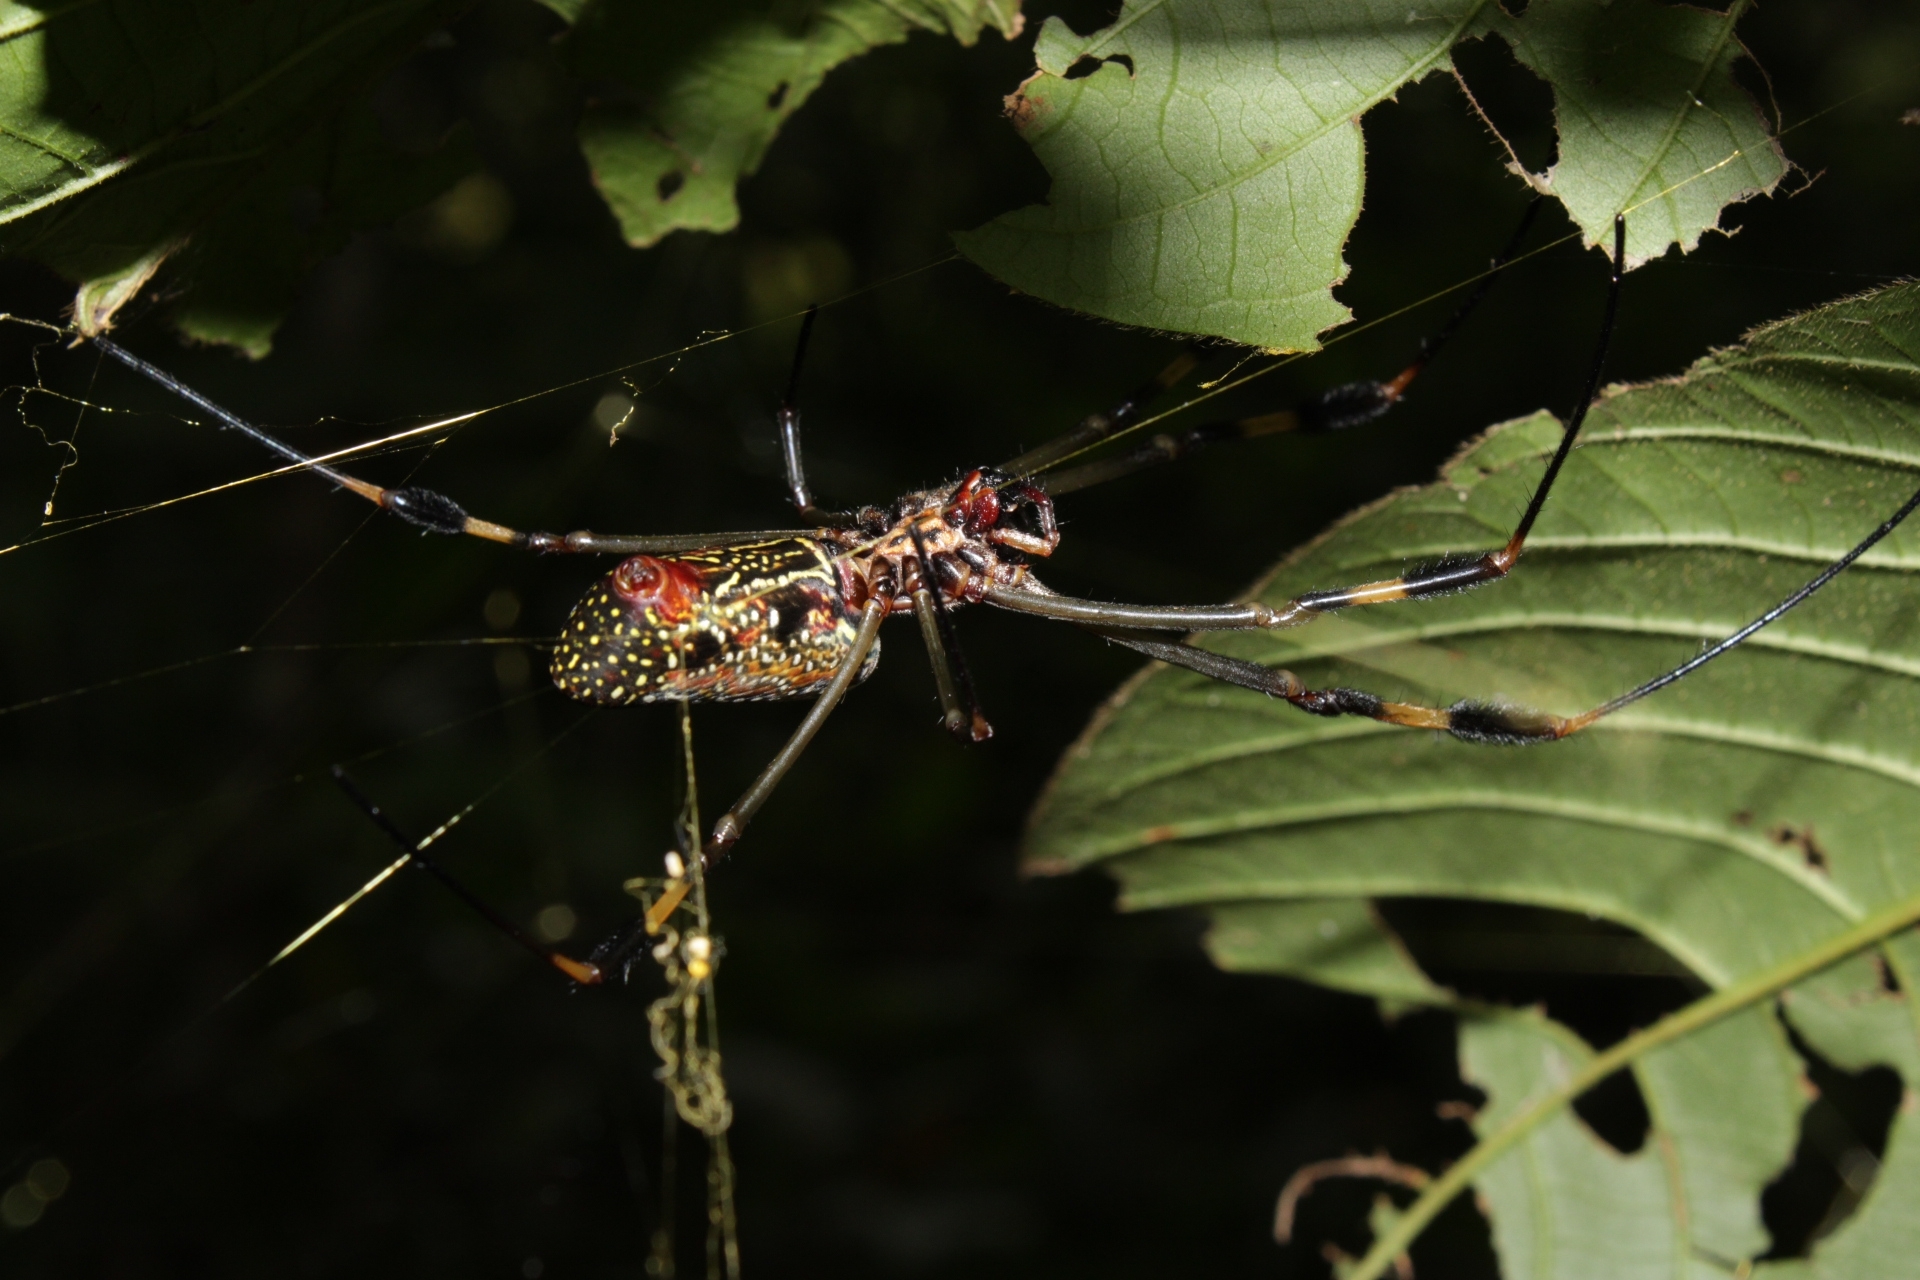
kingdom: Animalia
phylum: Arthropoda
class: Arachnida
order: Araneae
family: Araneidae
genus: Trichonephila
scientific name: Trichonephila clavipes
